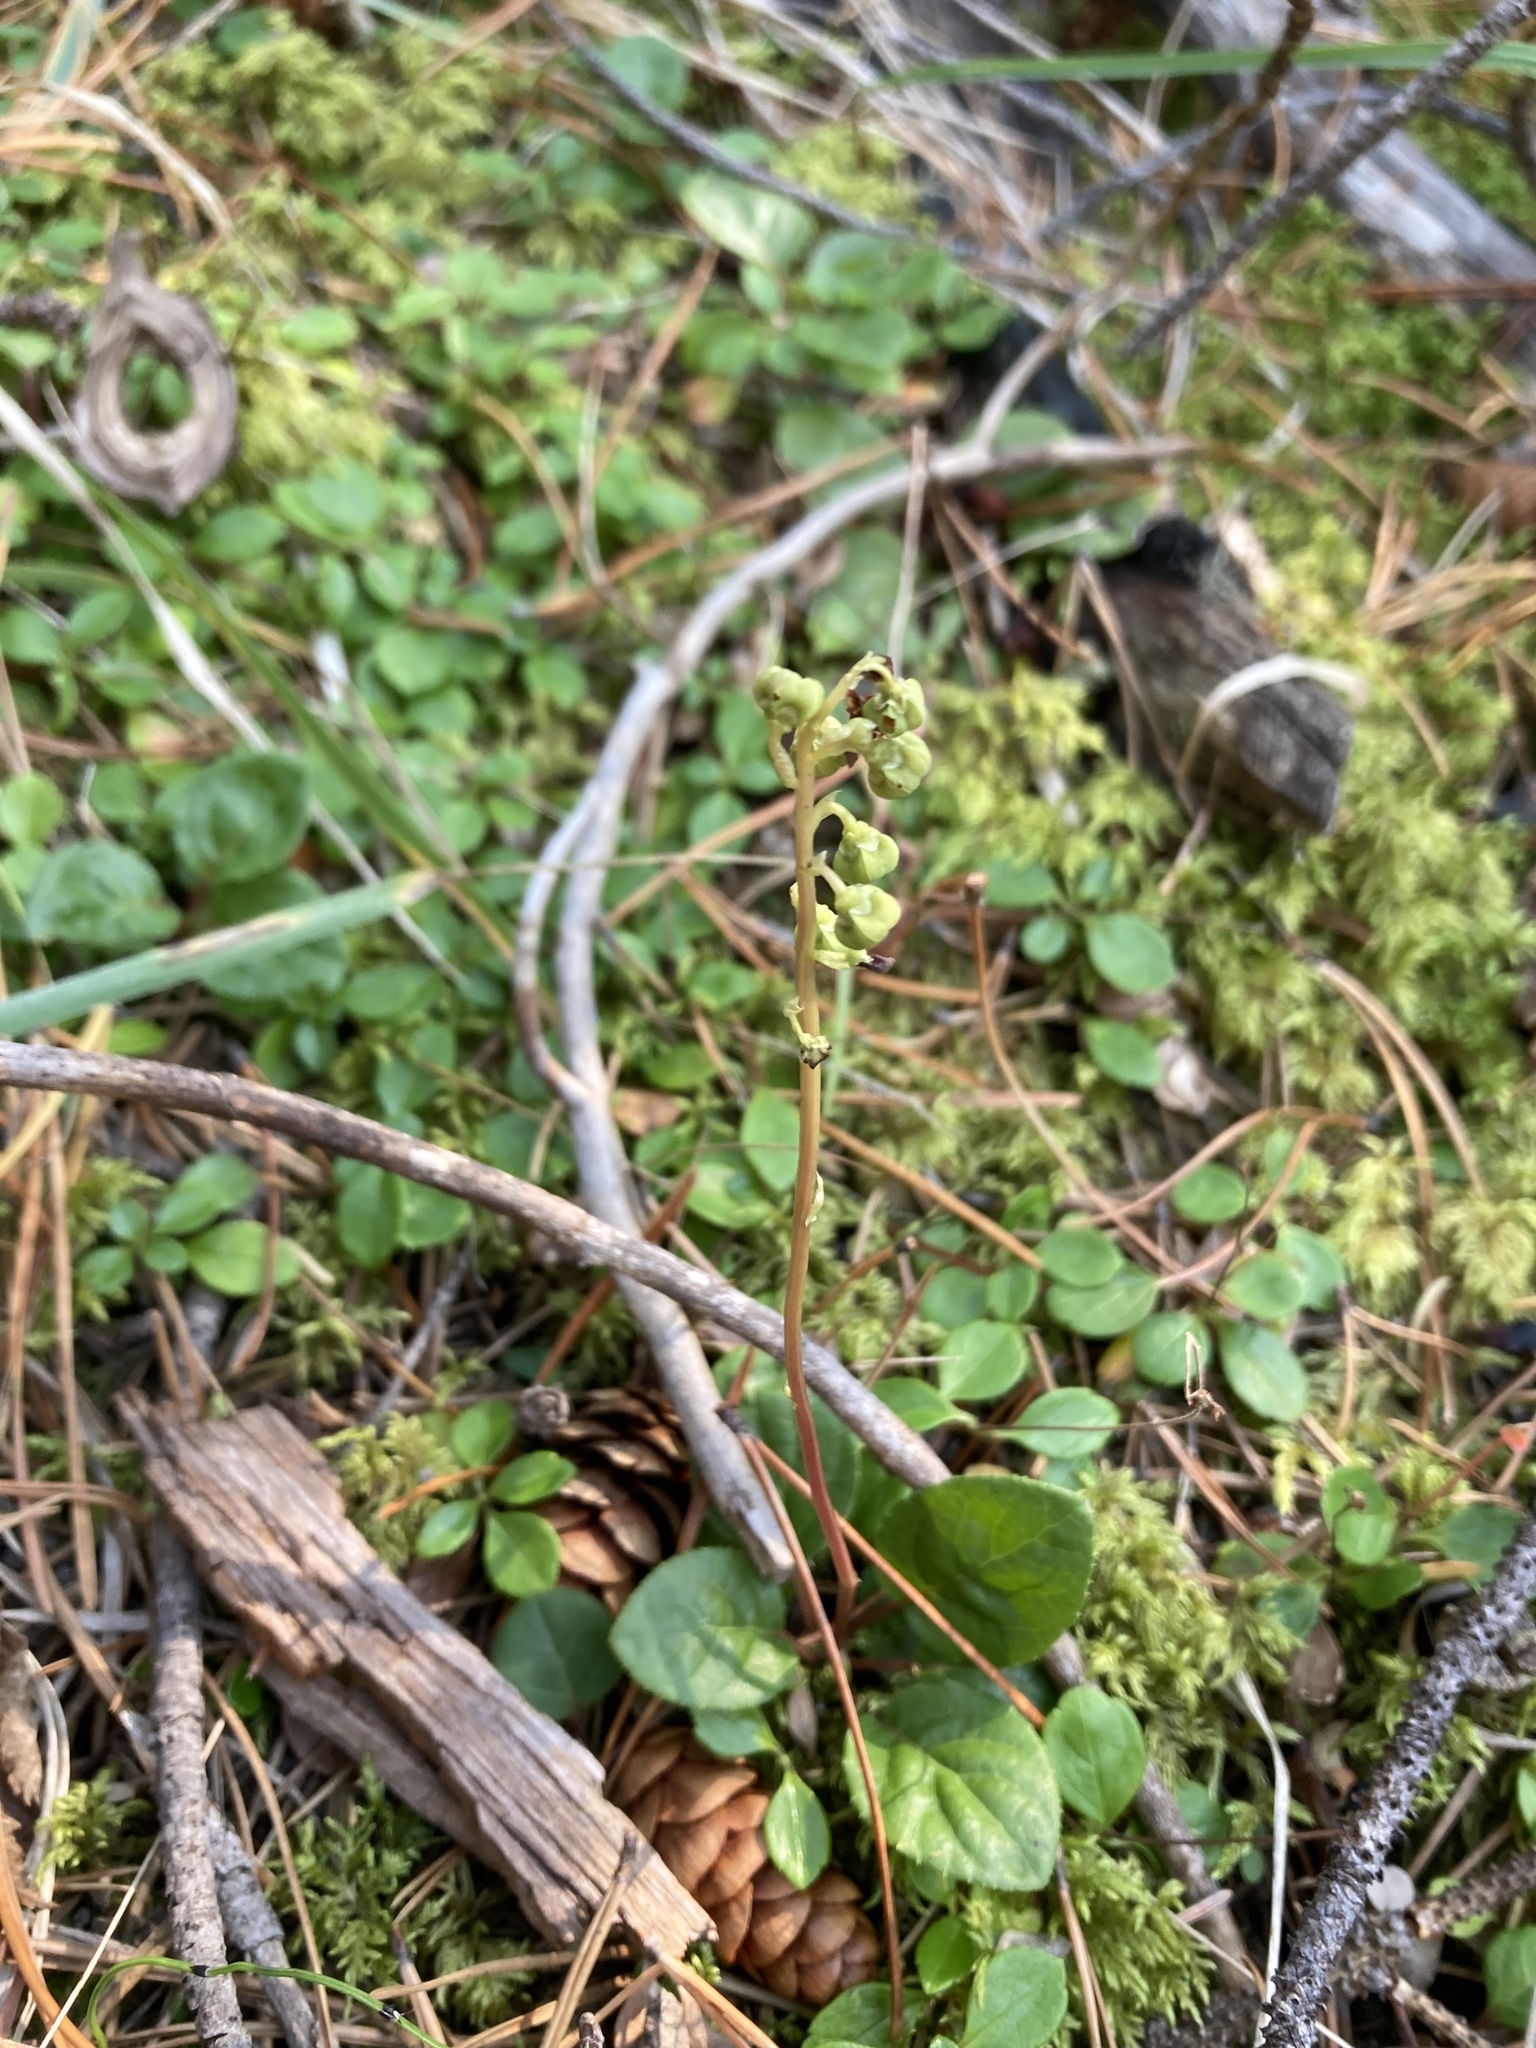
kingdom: Plantae
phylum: Tracheophyta
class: Magnoliopsida
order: Ericales
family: Ericaceae
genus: Orthilia
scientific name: Orthilia secunda
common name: One-sided orthilia
